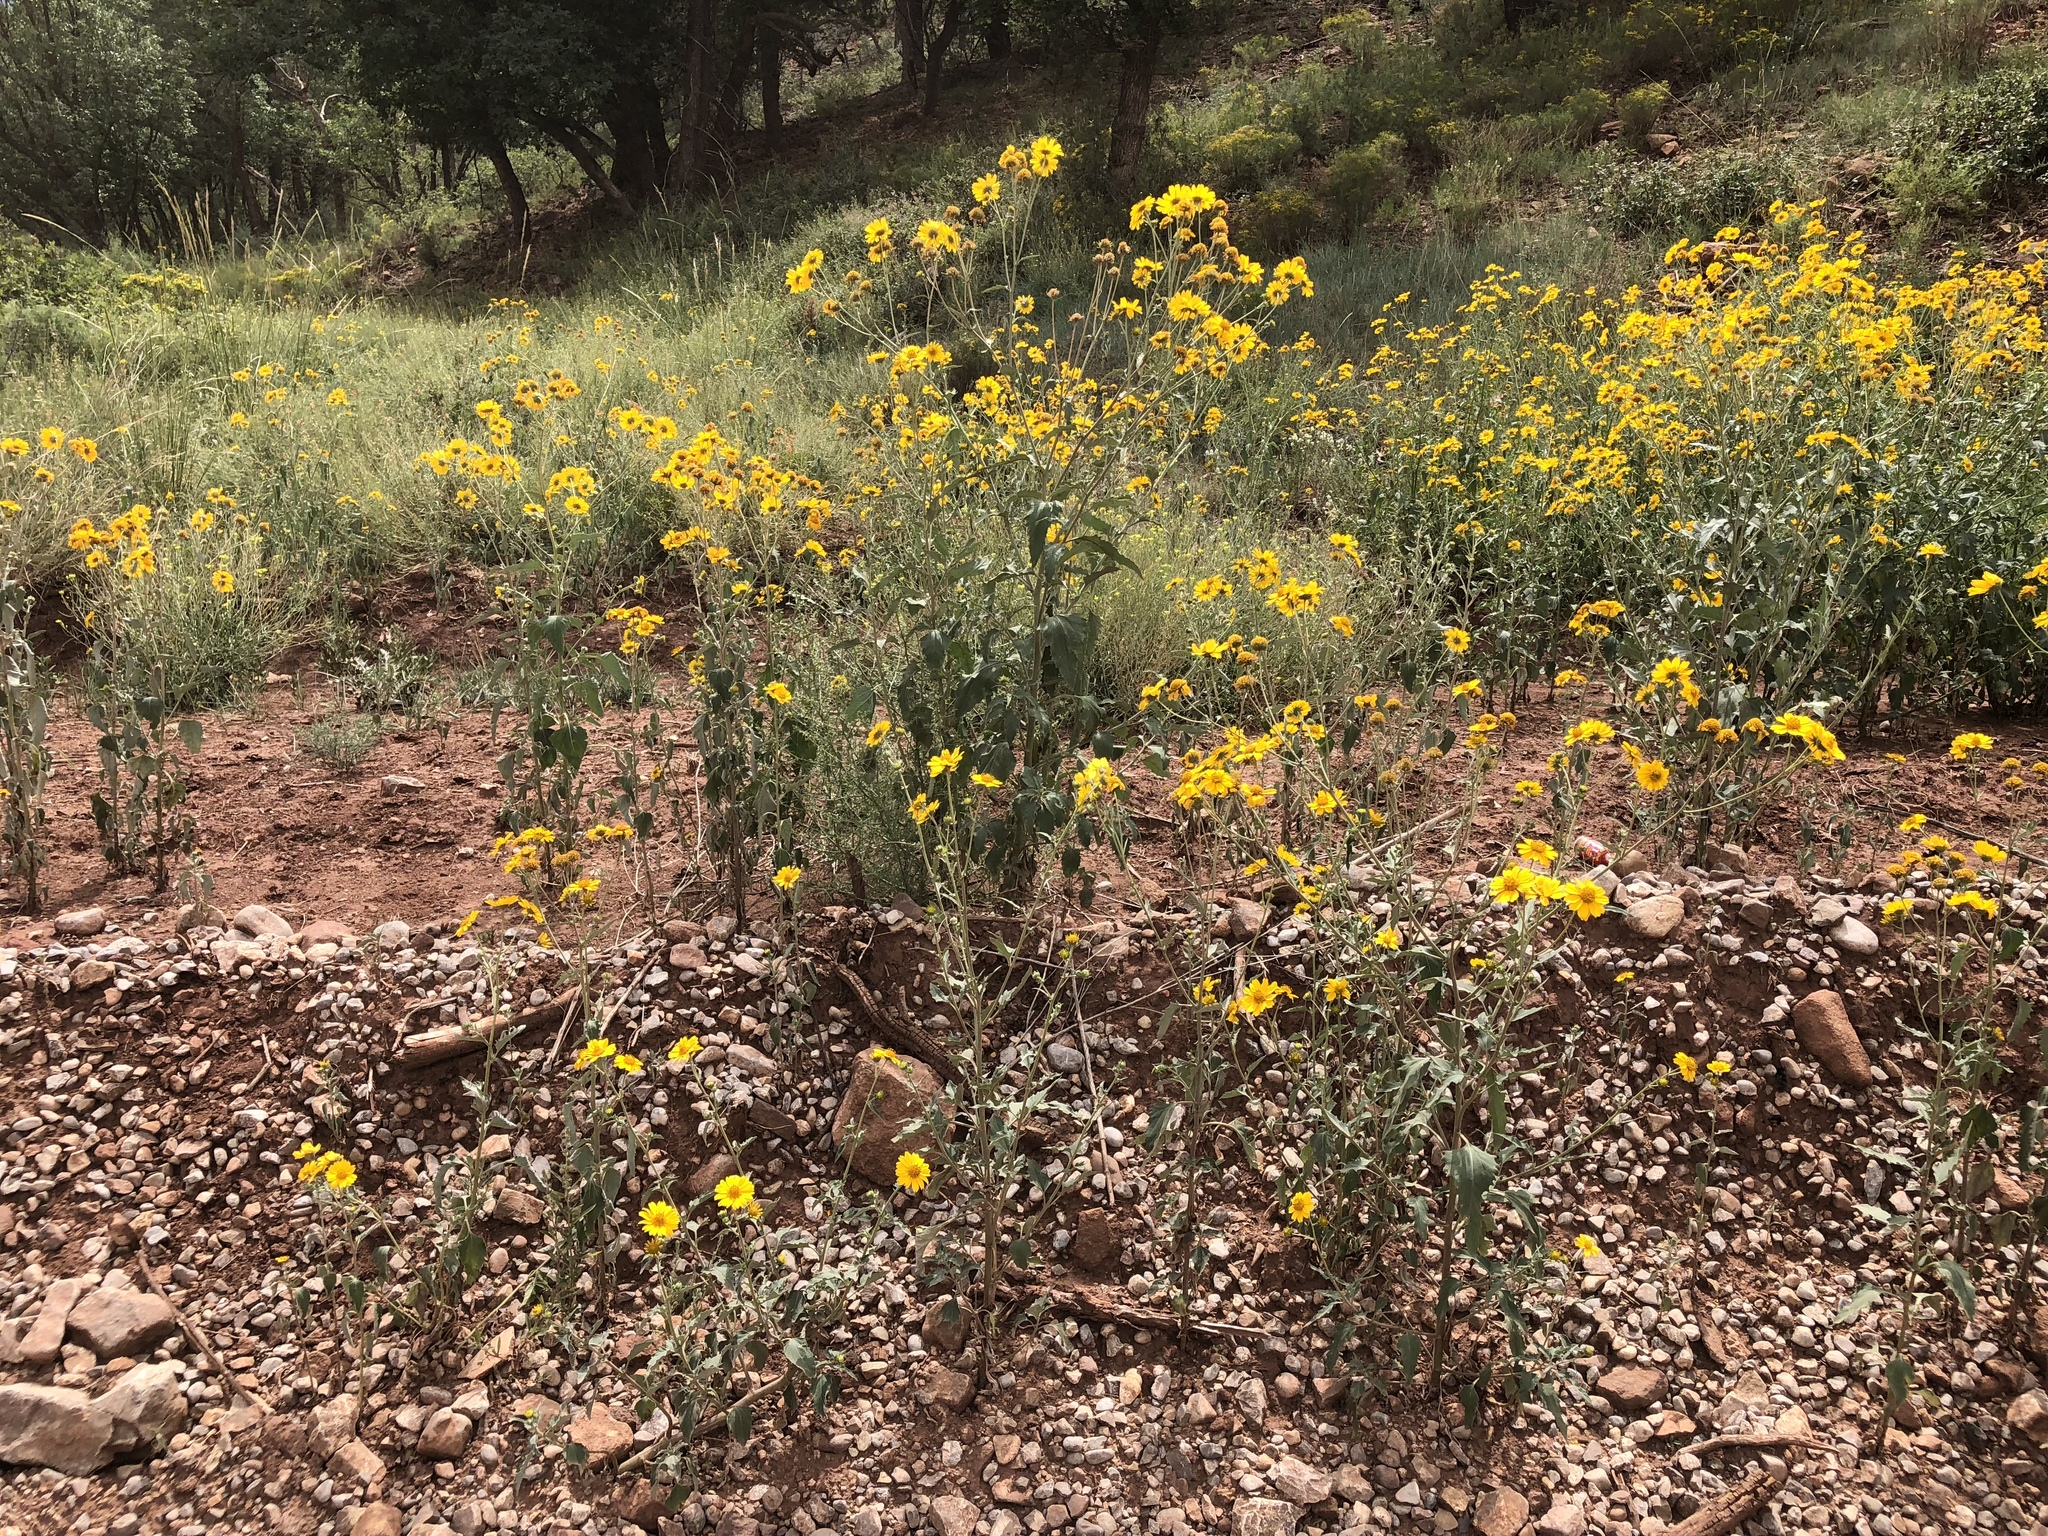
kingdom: Plantae
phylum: Tracheophyta
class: Magnoliopsida
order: Asterales
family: Asteraceae
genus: Verbesina
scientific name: Verbesina encelioides
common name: Golden crownbeard
